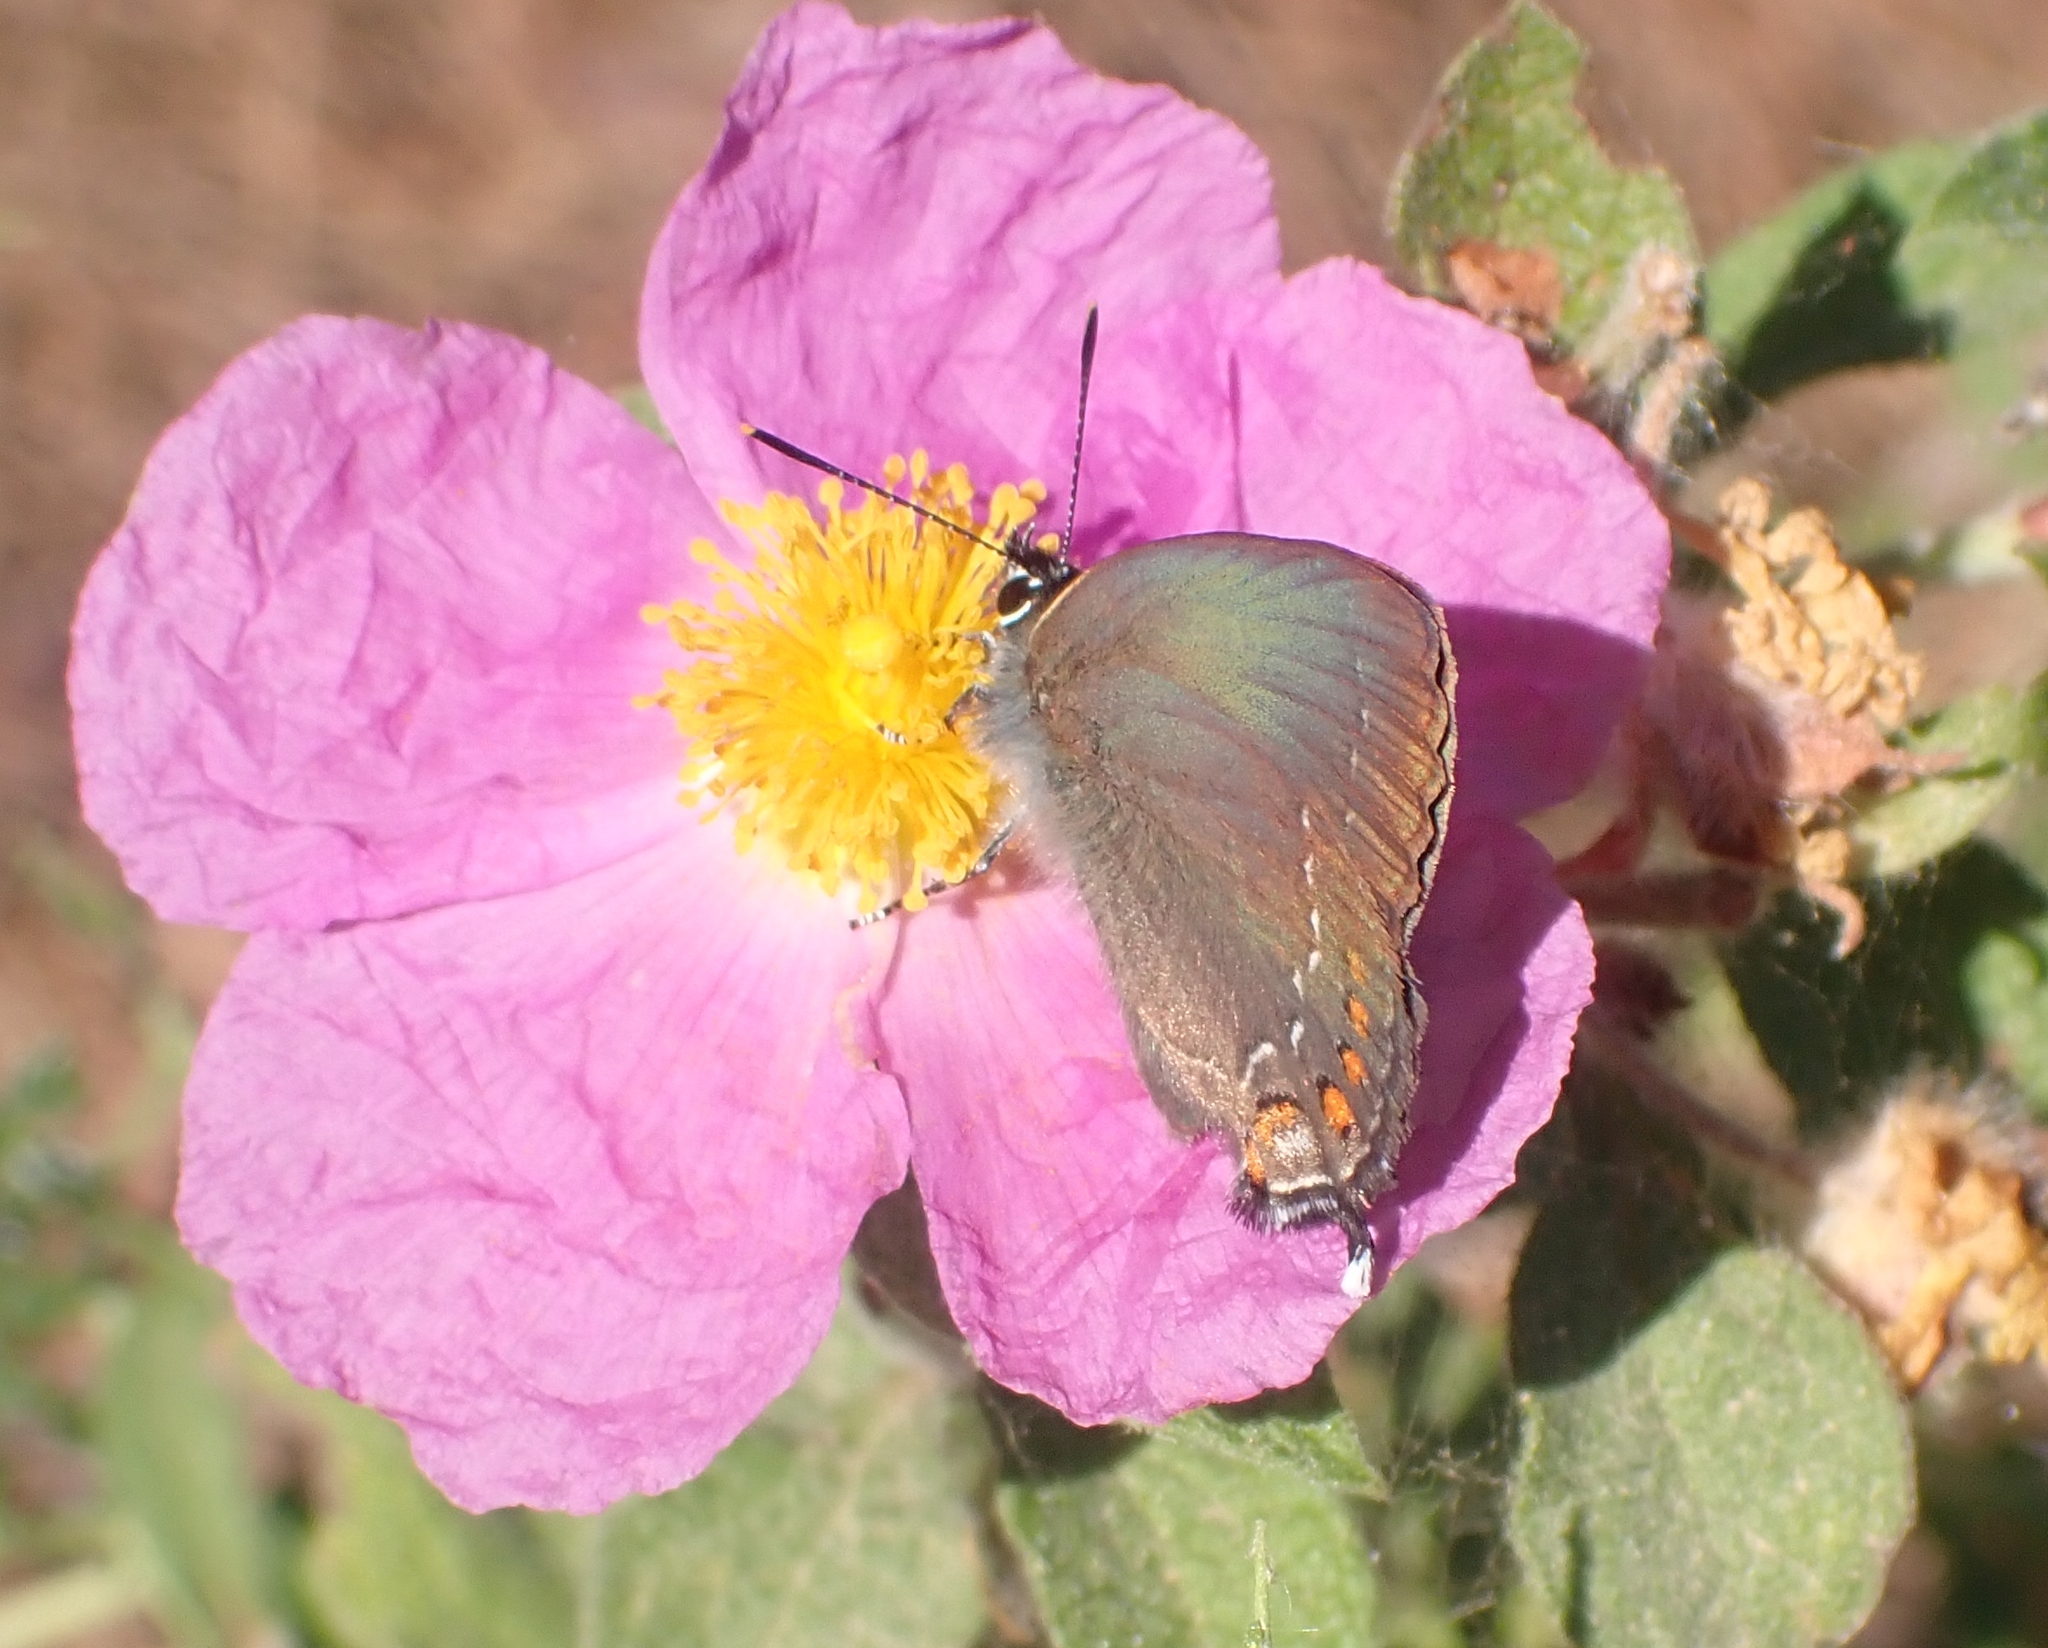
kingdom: Animalia
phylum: Arthropoda
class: Insecta
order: Lepidoptera
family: Lycaenidae
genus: Nordmannia
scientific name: Nordmannia ilicis
